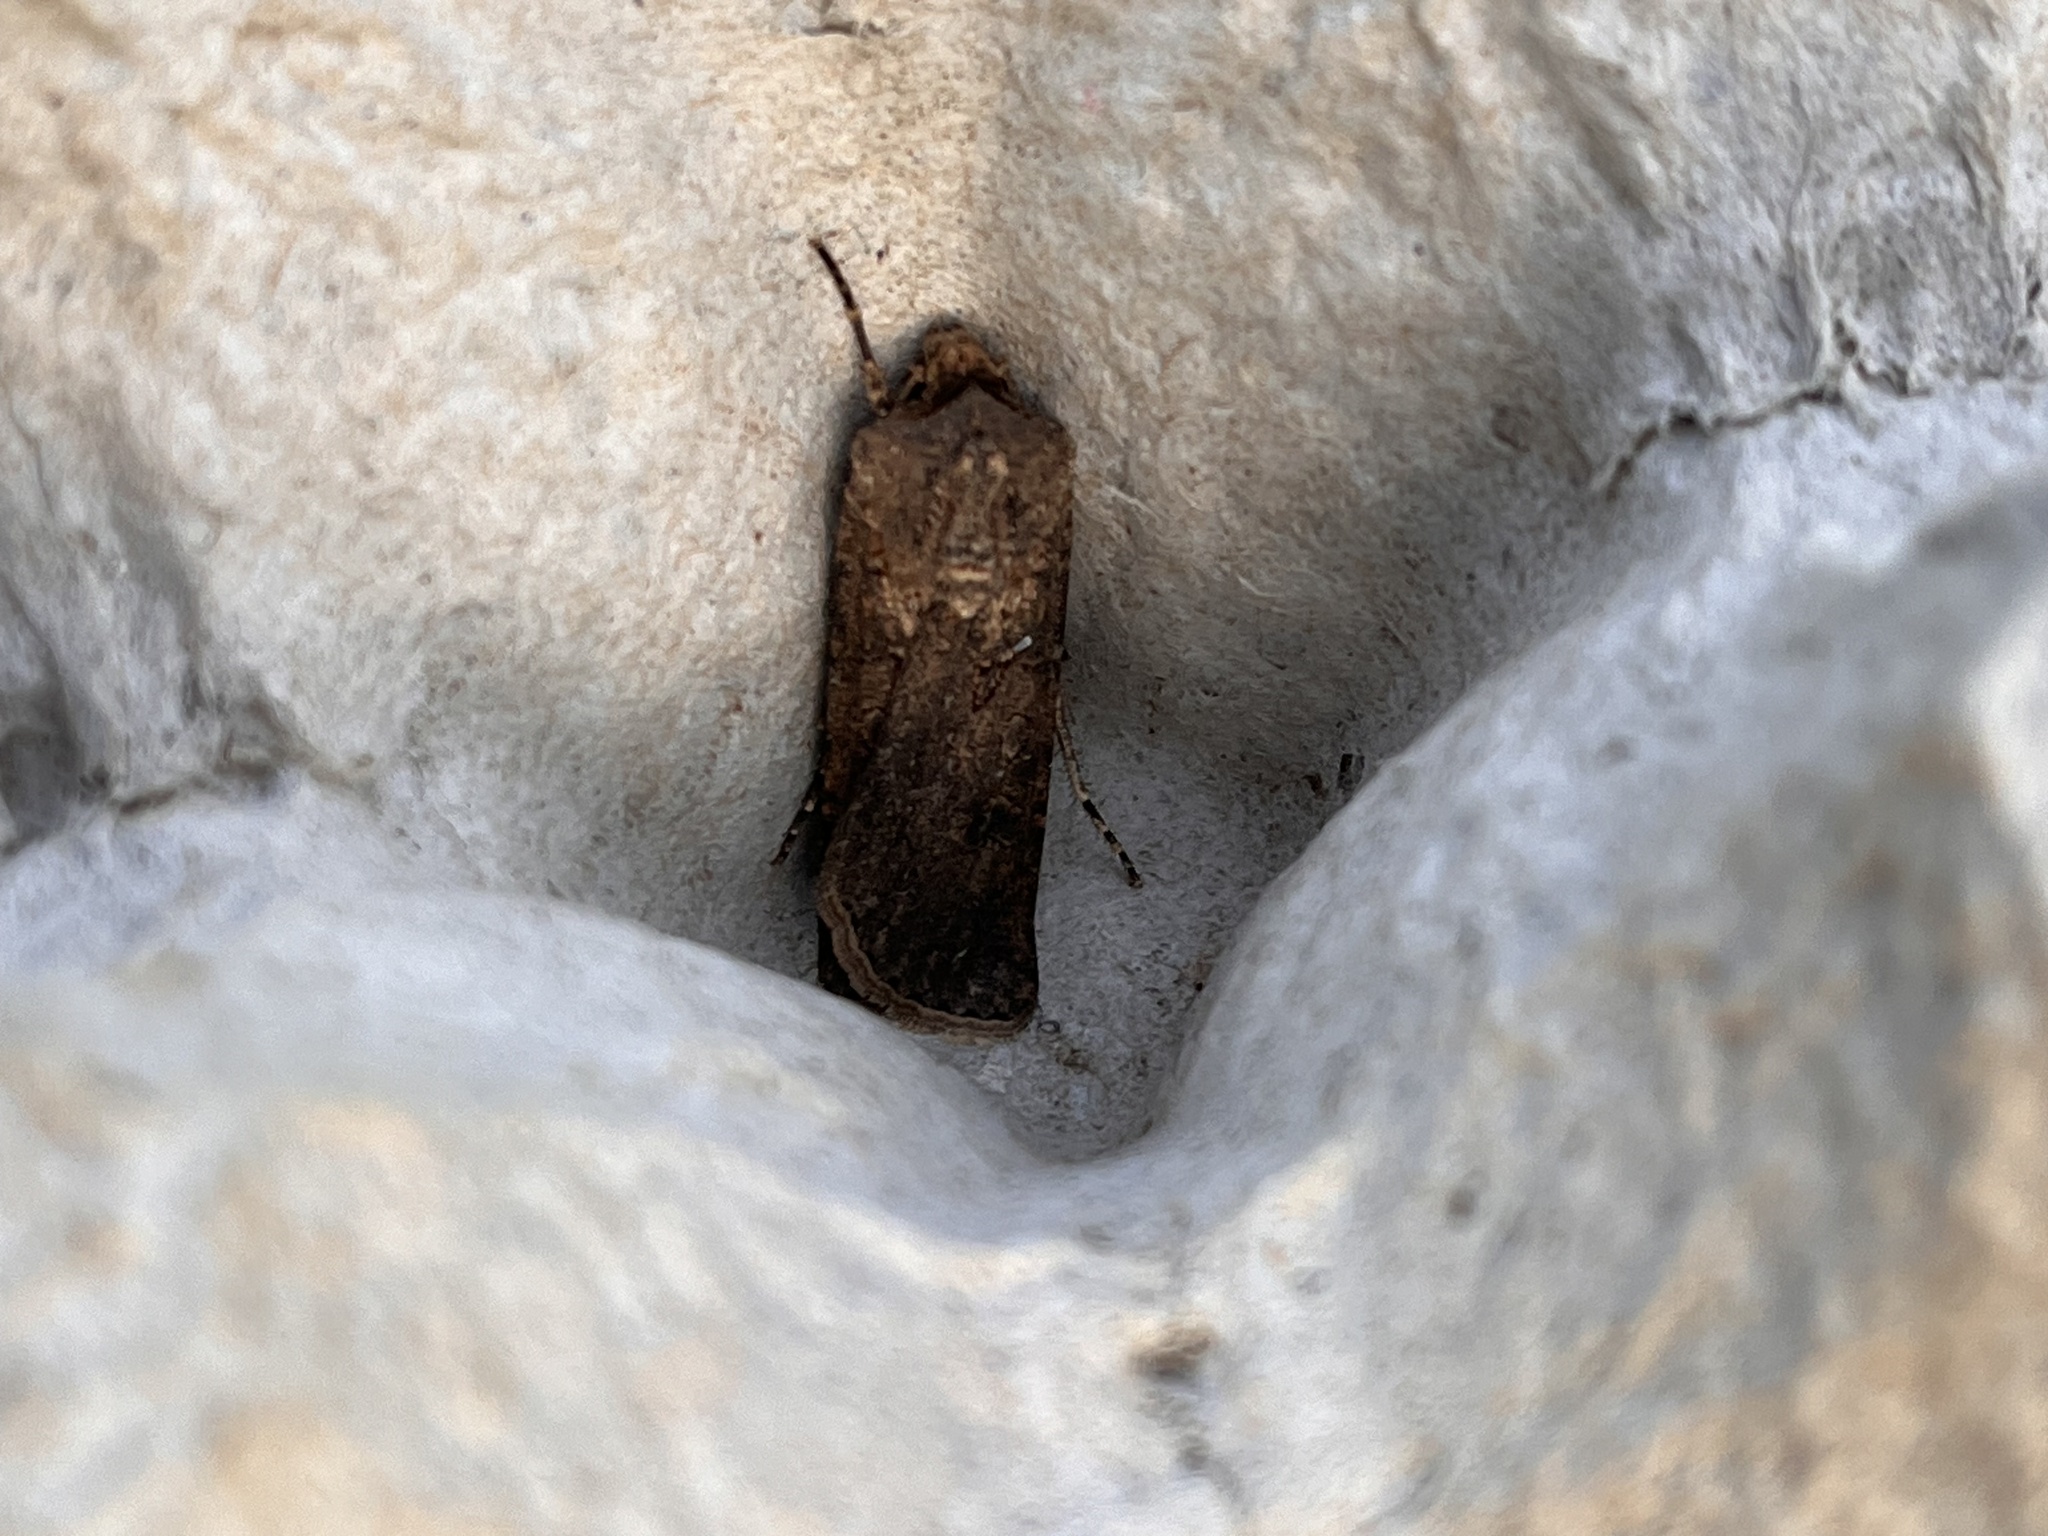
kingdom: Animalia
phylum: Arthropoda
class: Insecta
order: Lepidoptera
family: Noctuidae
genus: Agrotis
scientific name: Agrotis segetum
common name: Turnip moth
